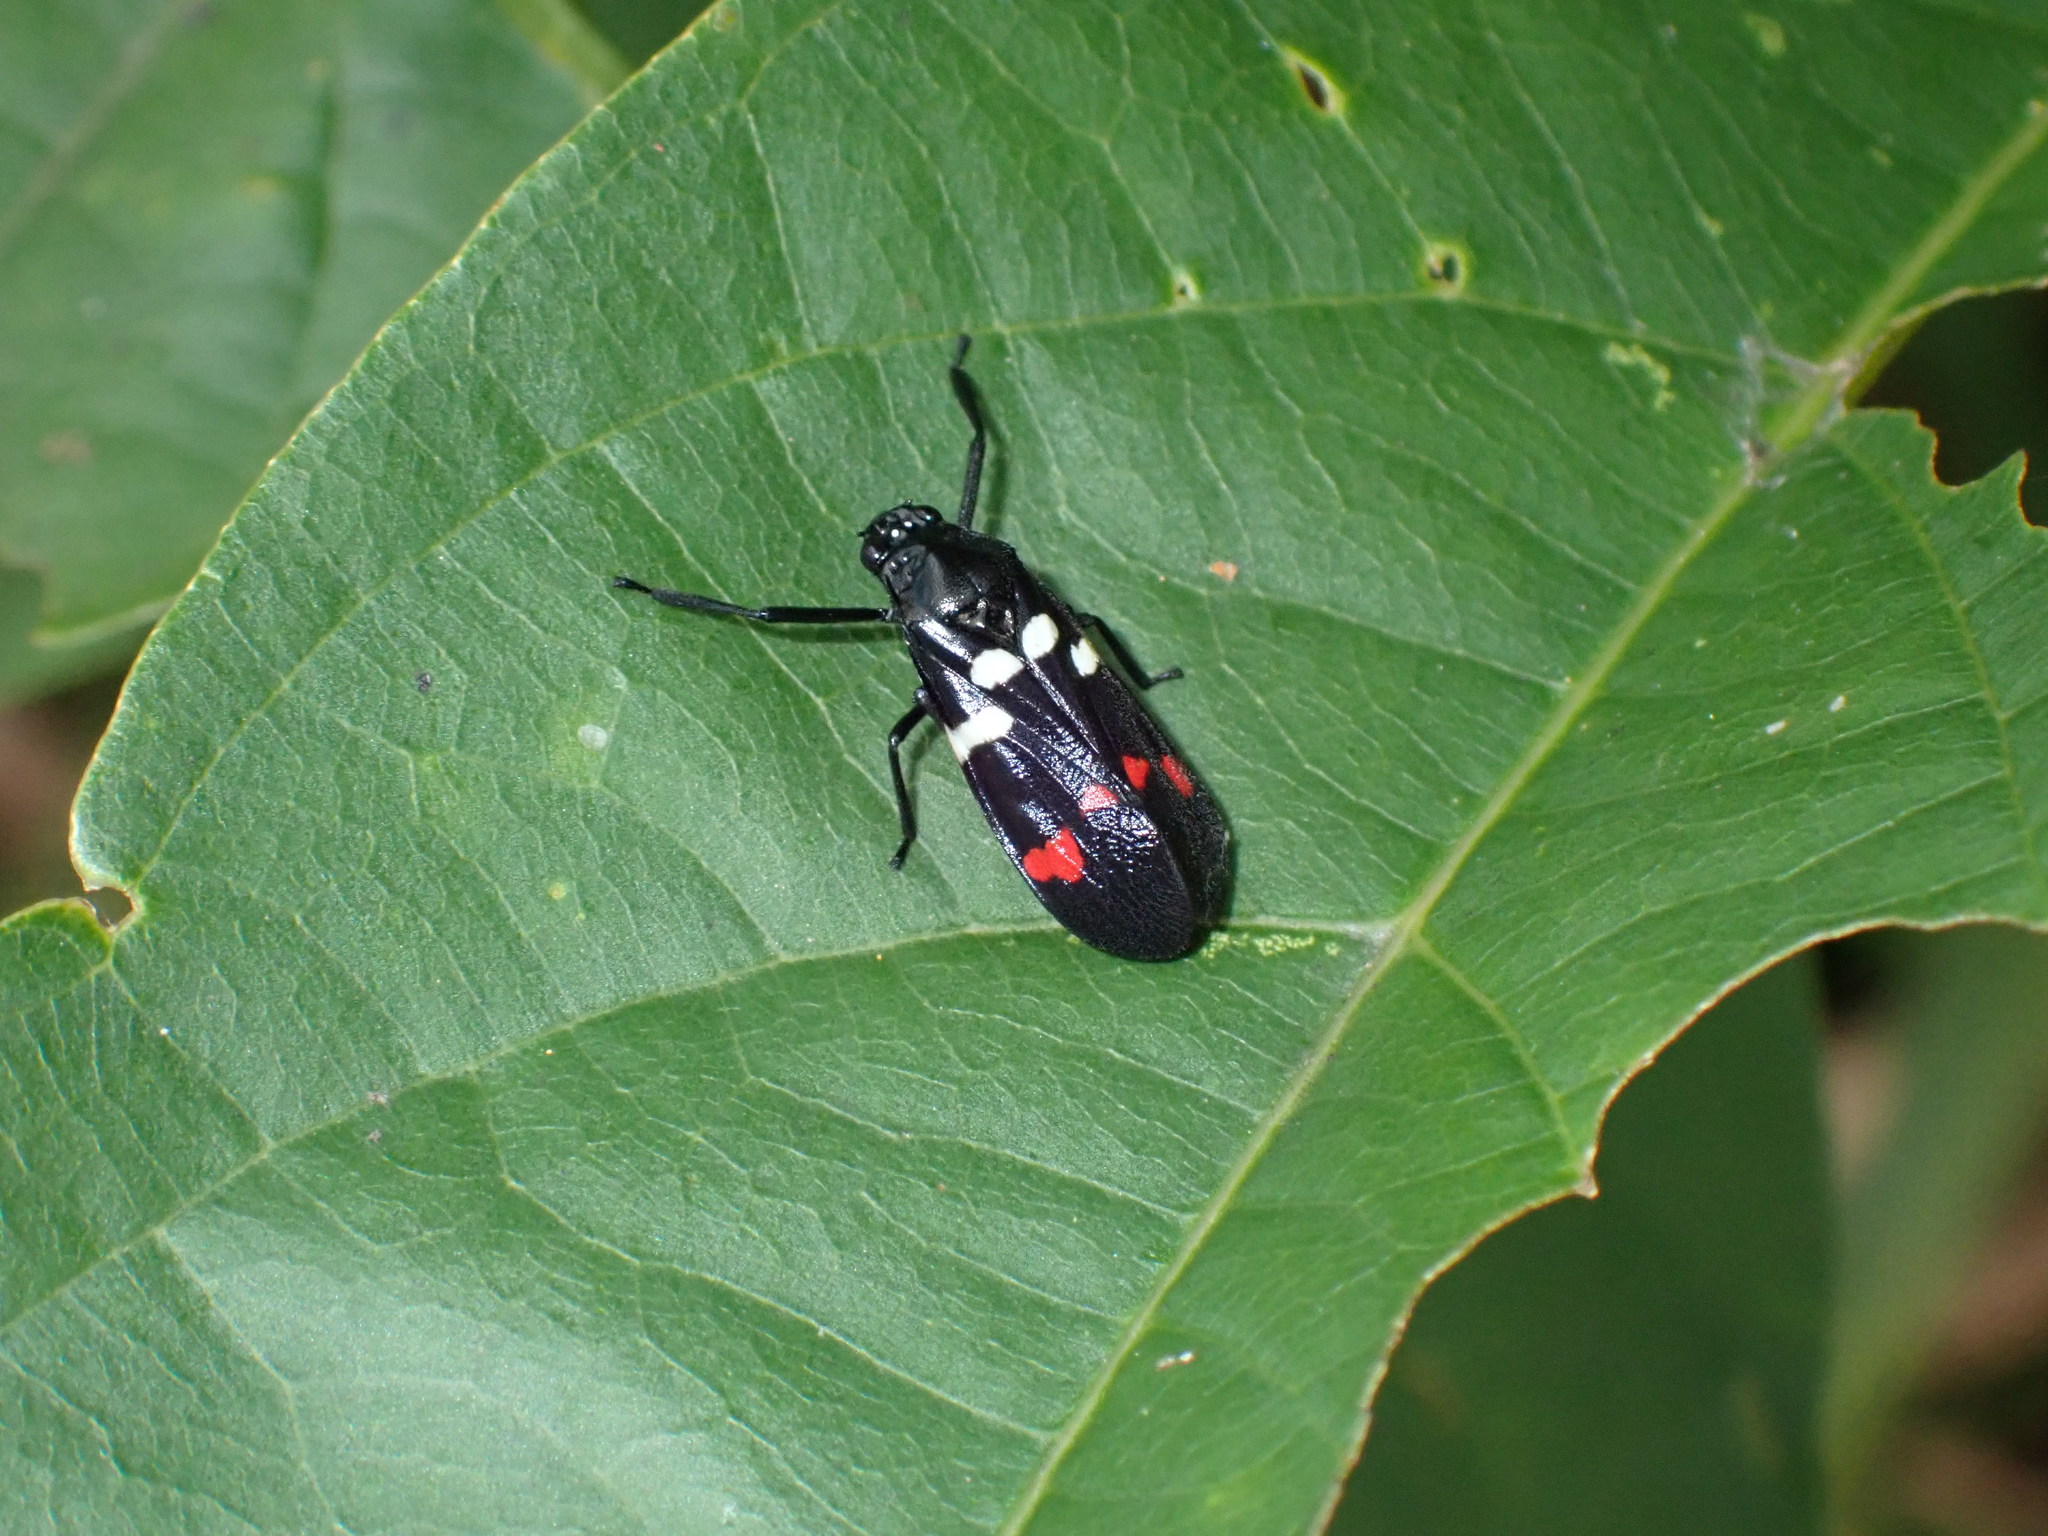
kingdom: Animalia
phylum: Arthropoda
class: Insecta
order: Hemiptera
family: Cercopidae
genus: Callitettix
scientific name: Callitettix versicolor
